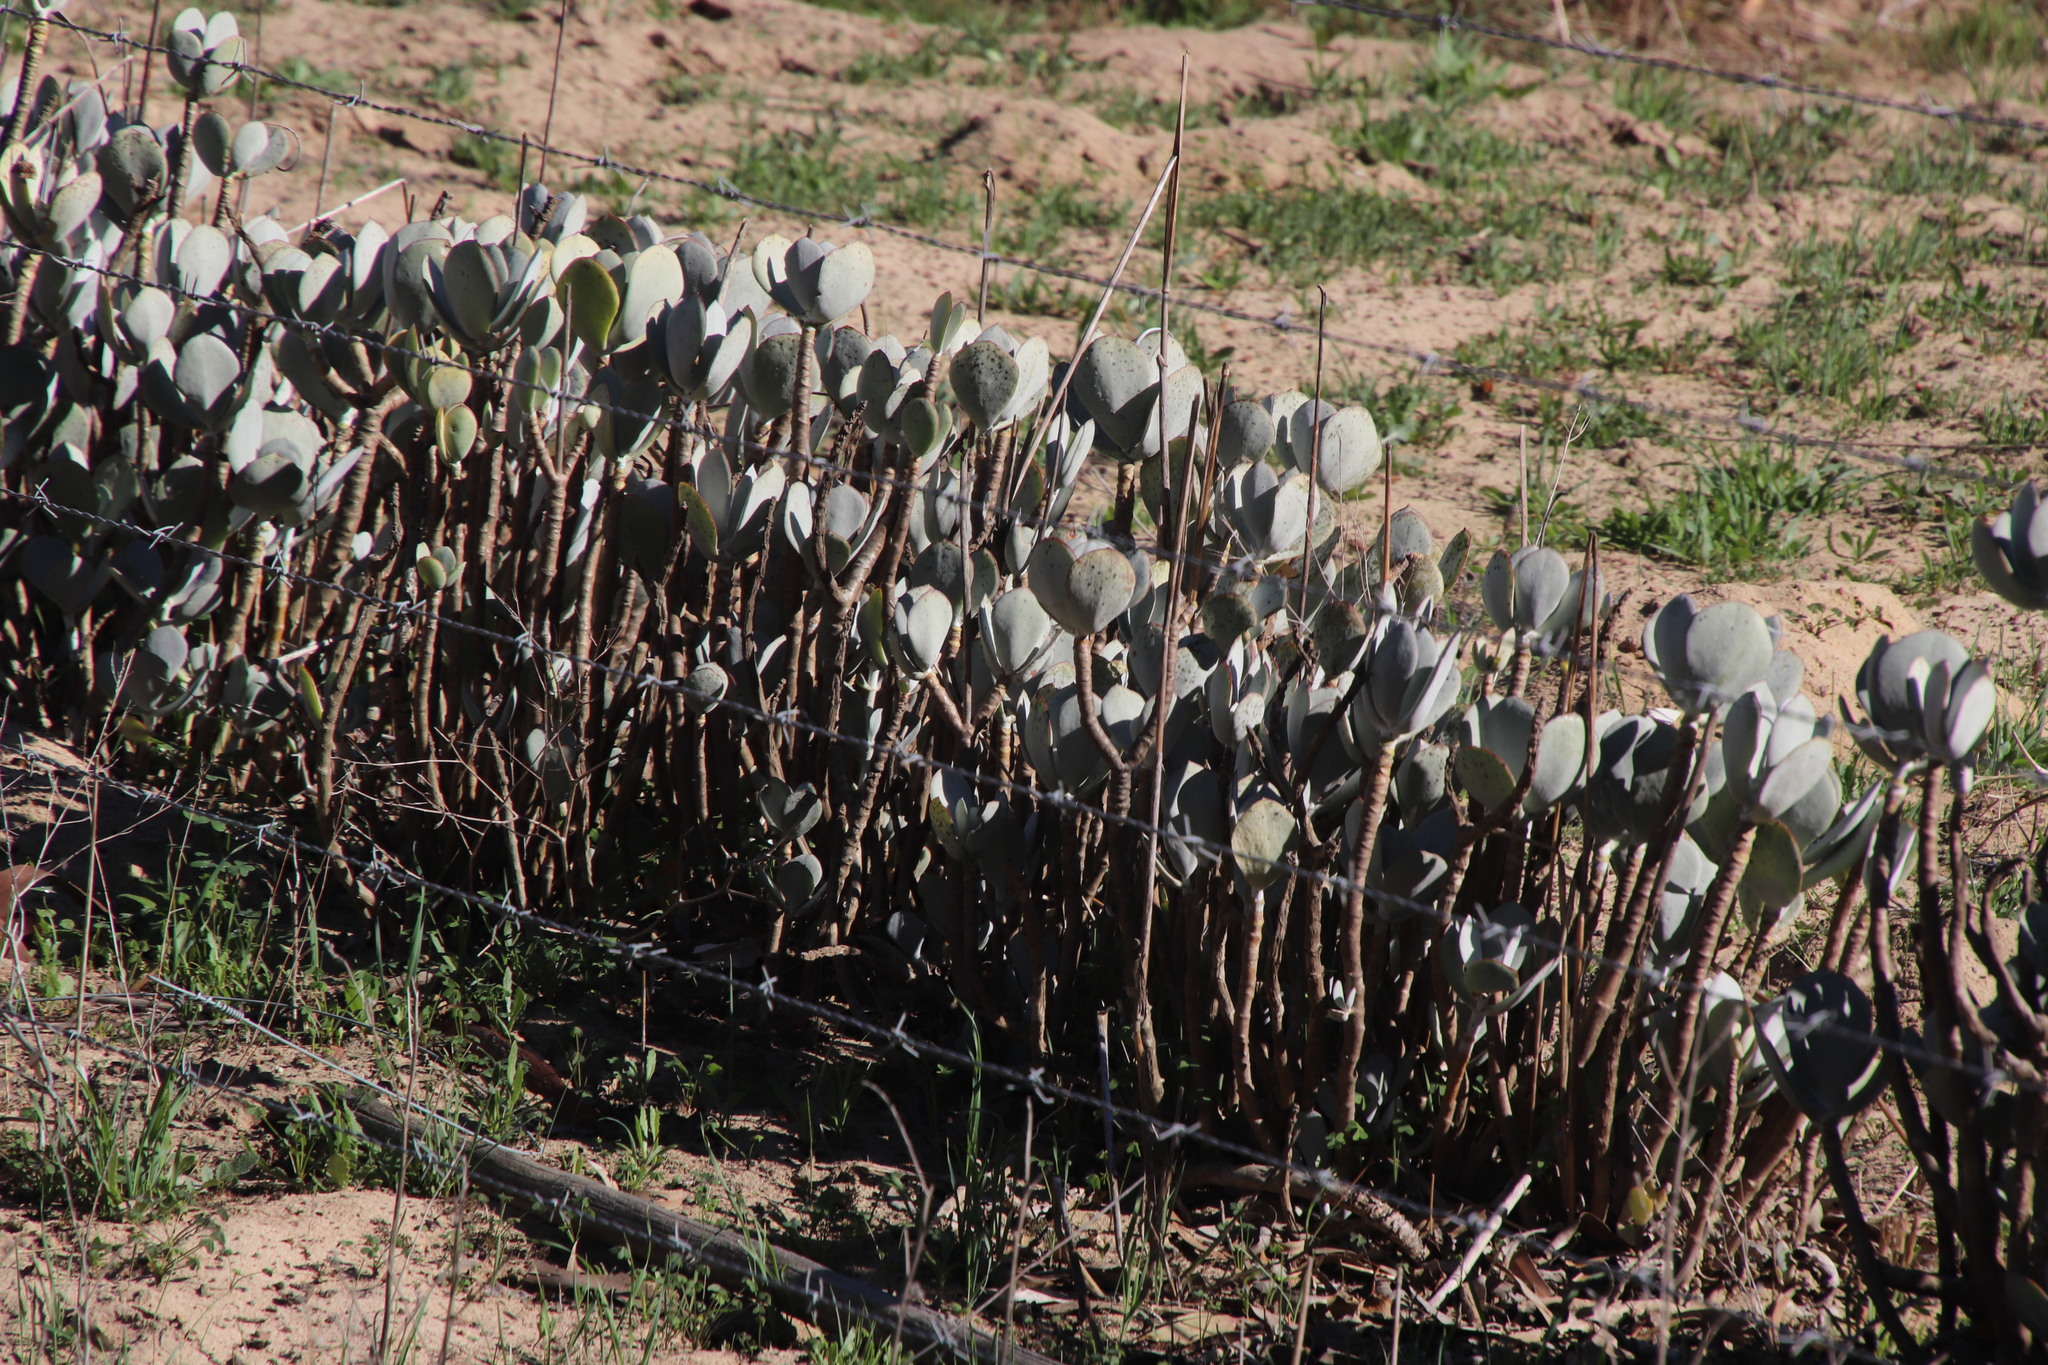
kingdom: Plantae
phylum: Tracheophyta
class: Magnoliopsida
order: Saxifragales
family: Crassulaceae
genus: Cotyledon
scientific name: Cotyledon orbiculata
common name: Pig's ear
